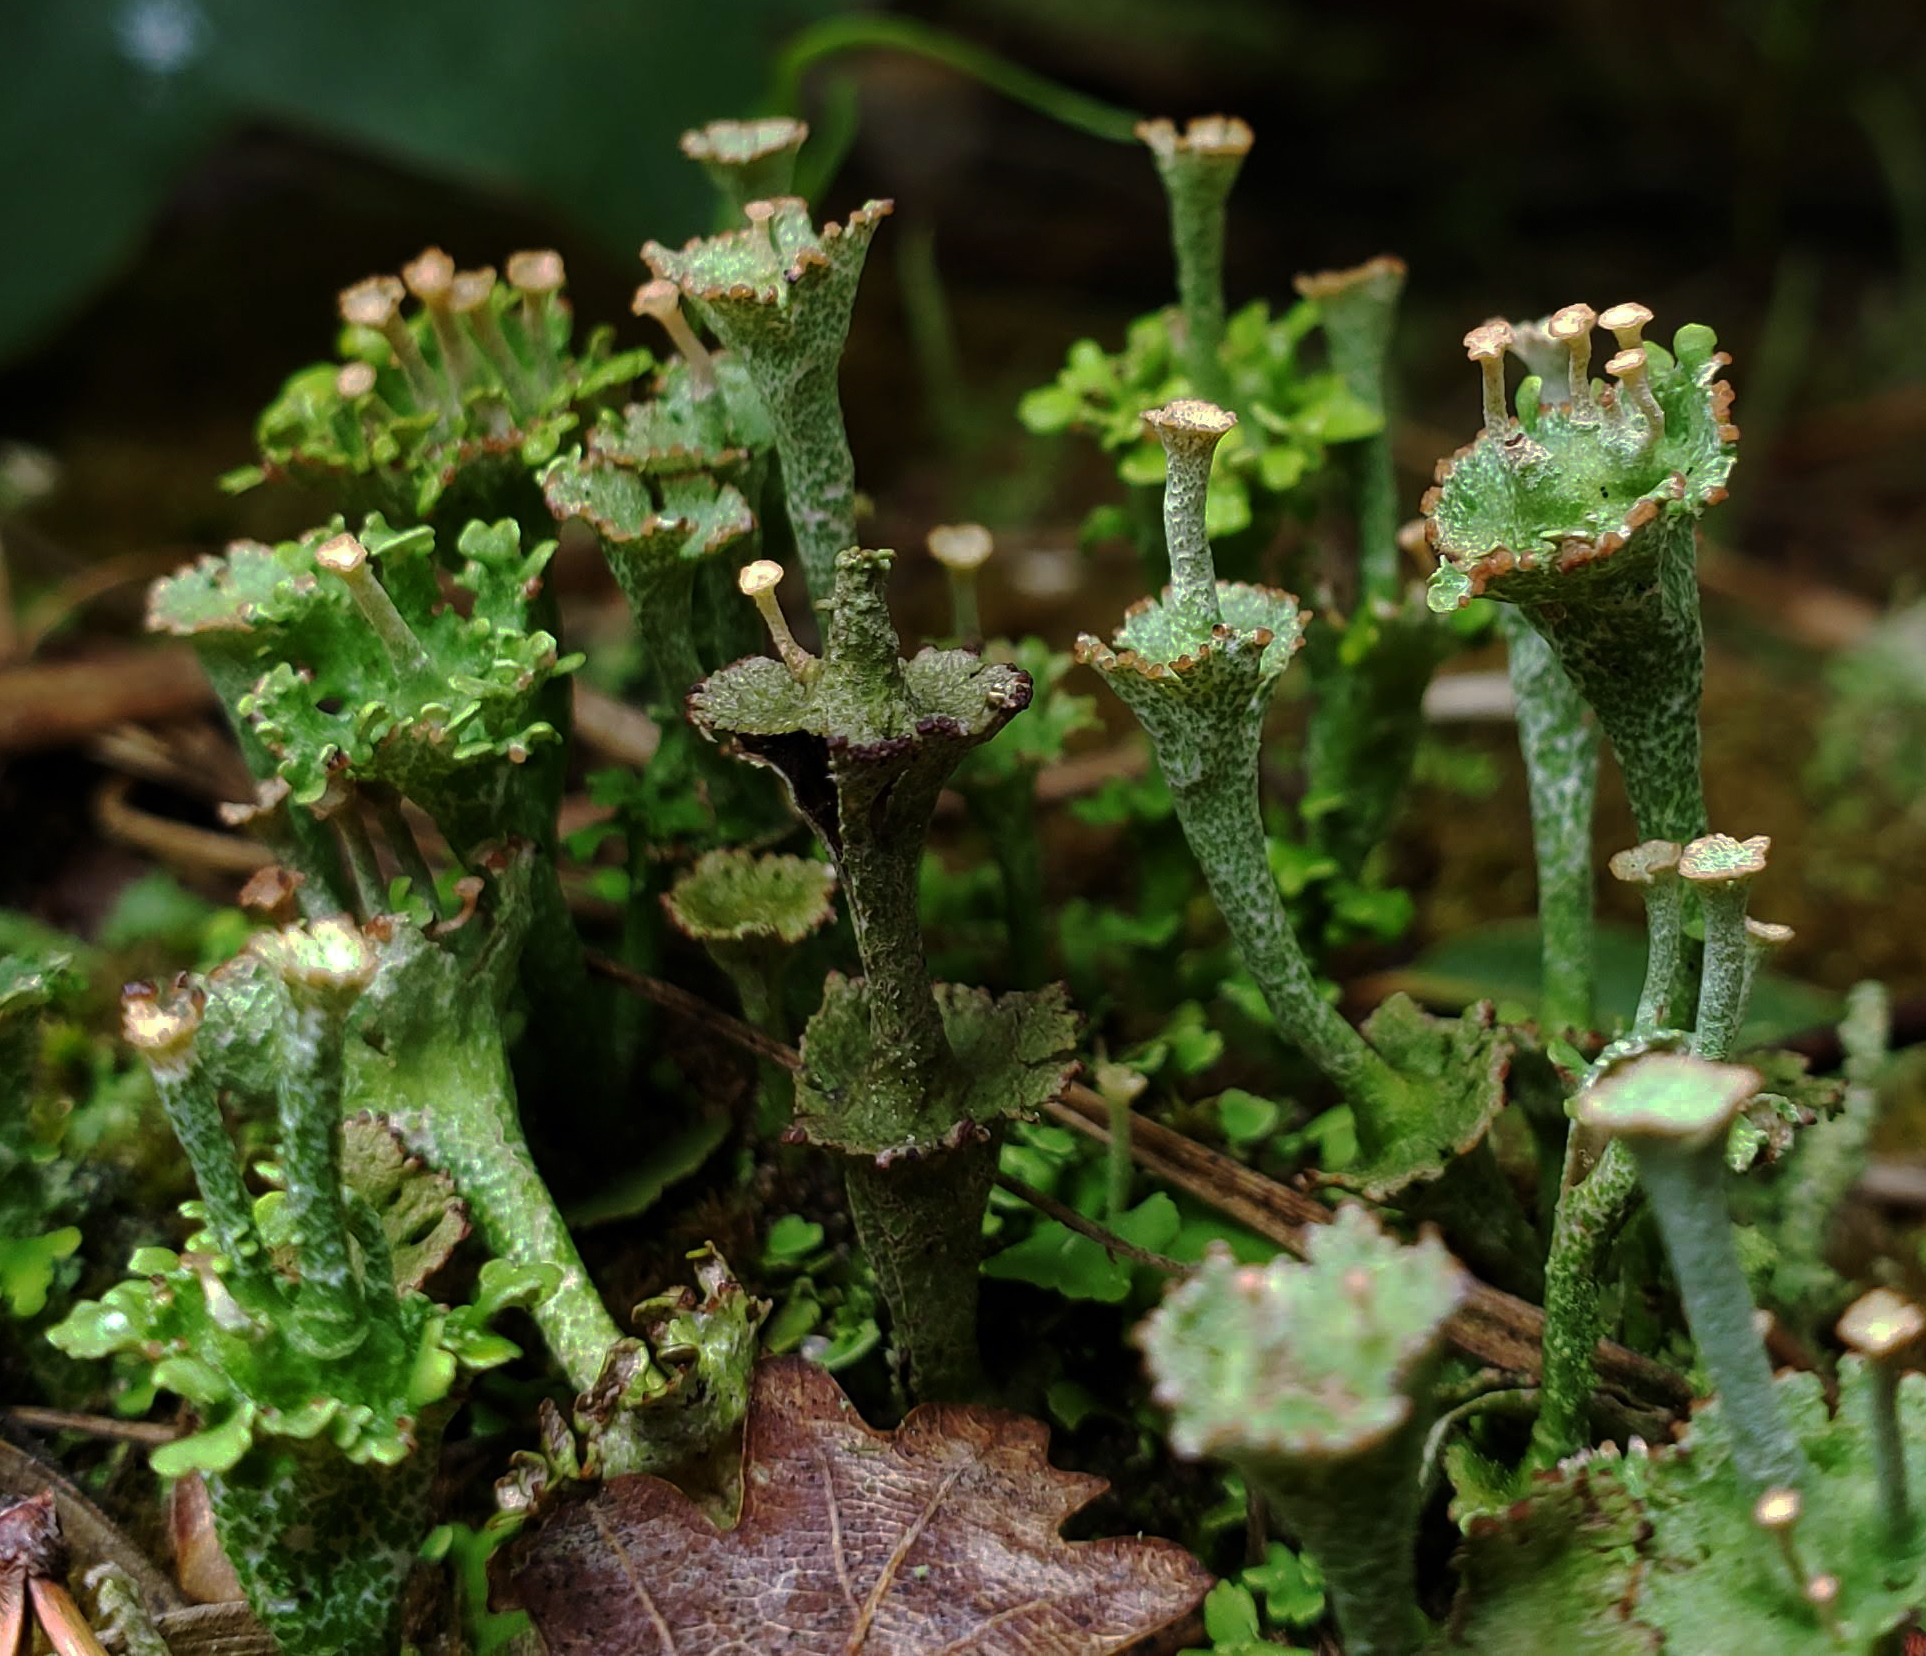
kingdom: Fungi
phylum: Ascomycota
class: Lecanoromycetes
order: Lecanorales
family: Cladoniaceae
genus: Cladonia
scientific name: Cladonia cervicornis
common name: Browned pixie-cup lichen
